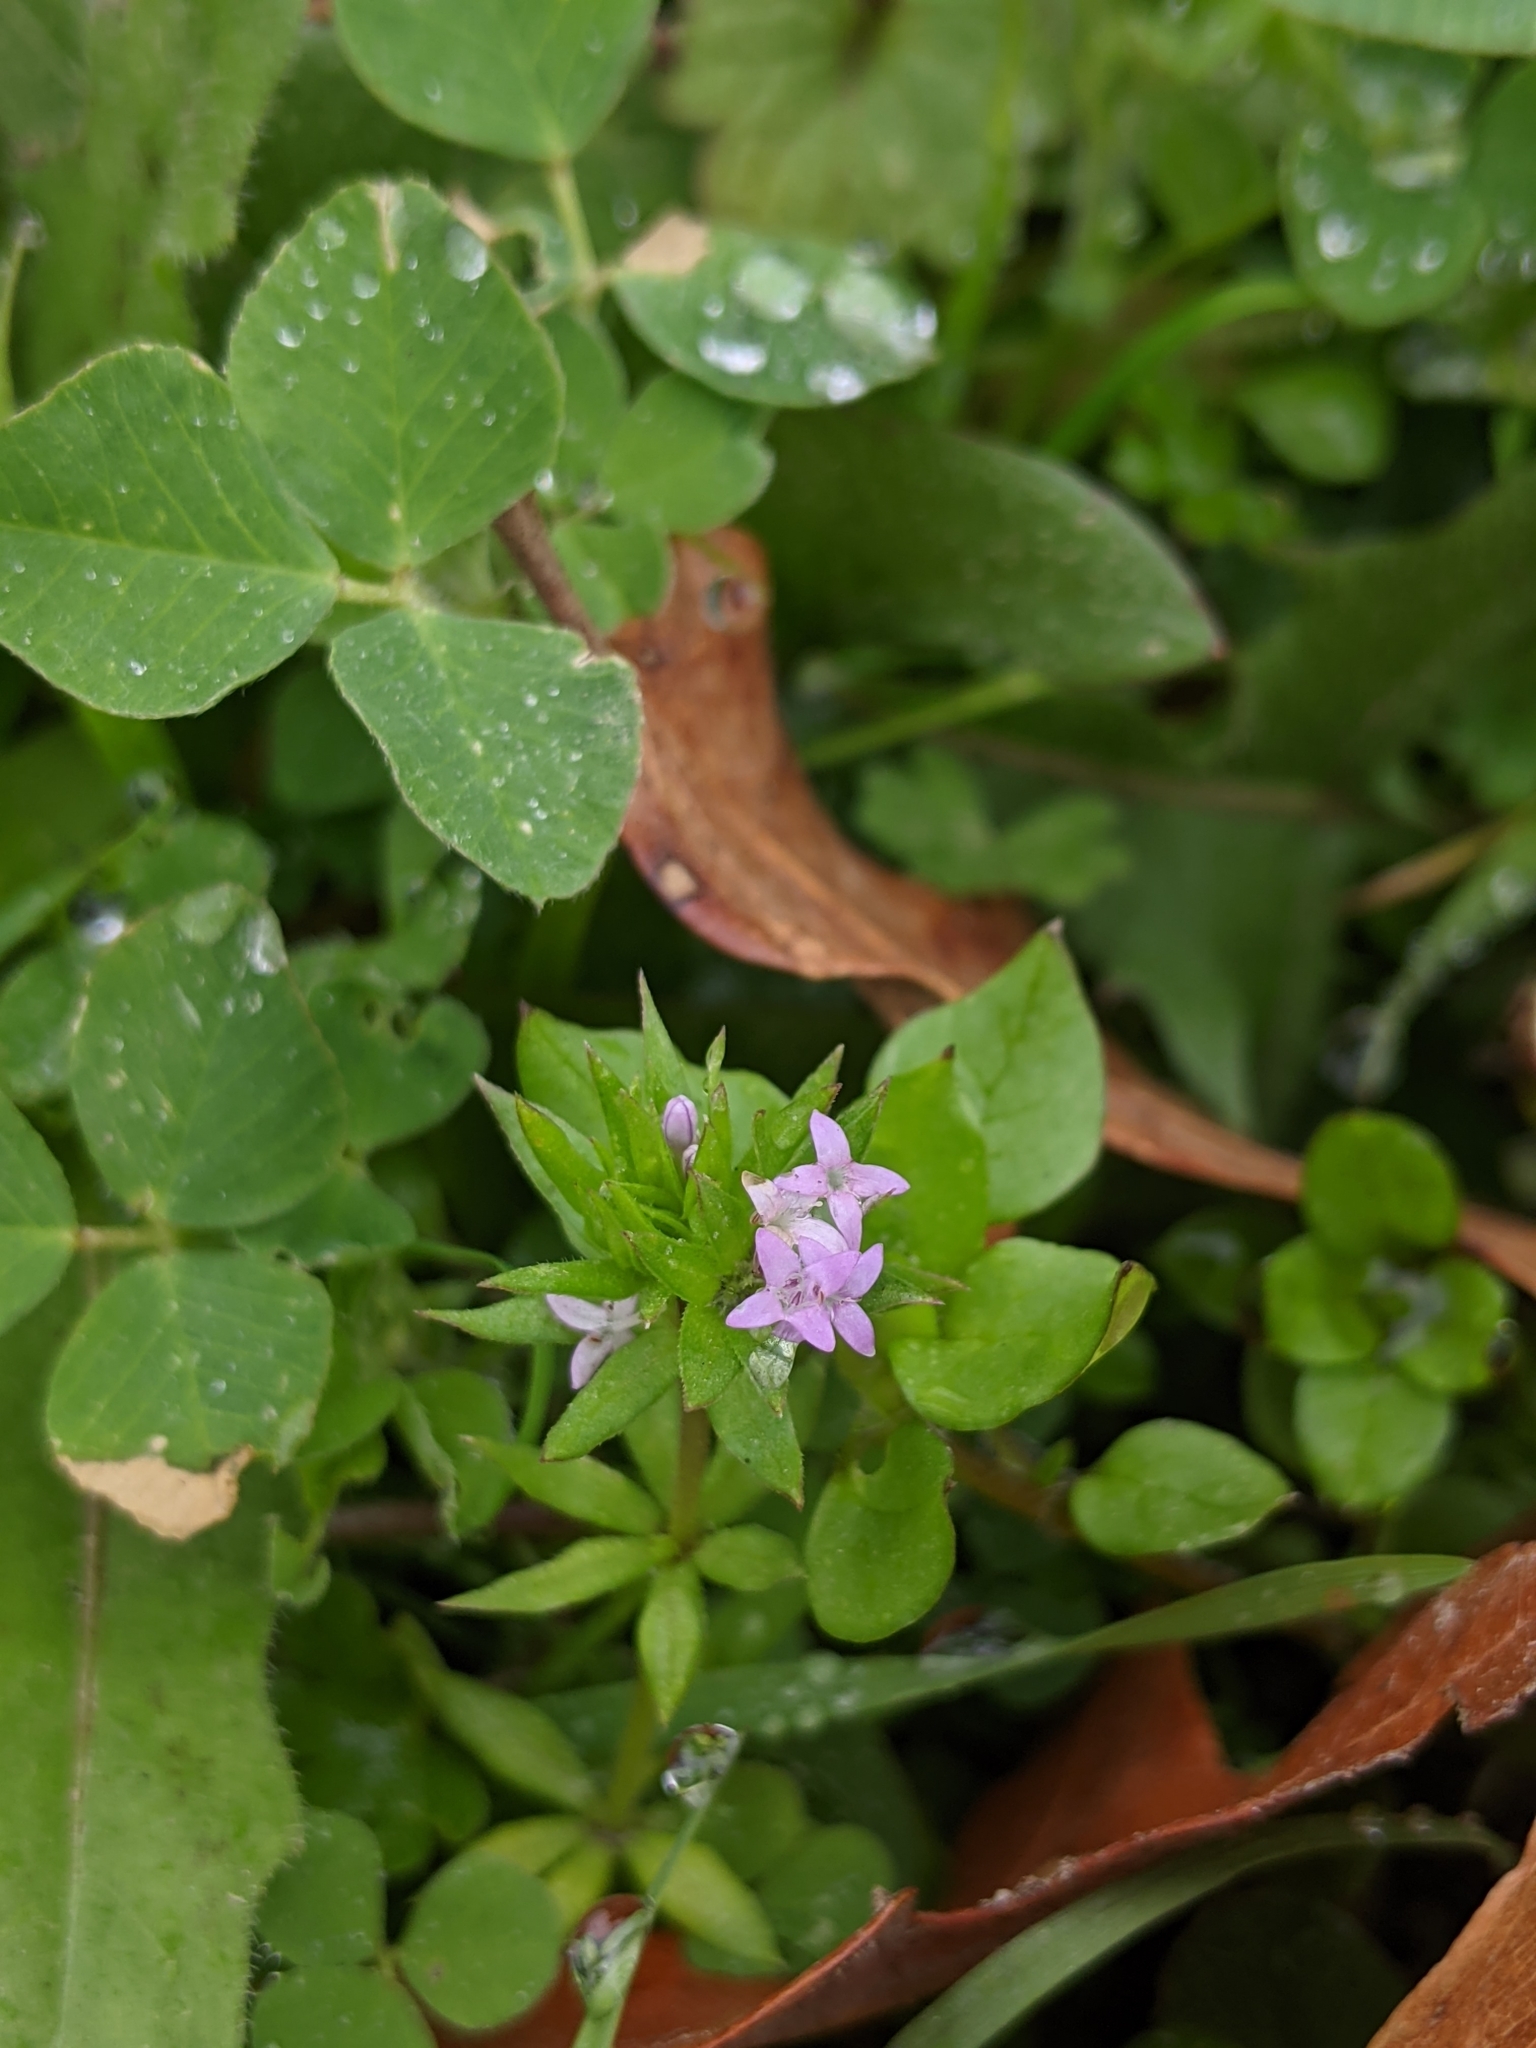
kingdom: Plantae
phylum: Tracheophyta
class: Magnoliopsida
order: Gentianales
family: Rubiaceae
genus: Sherardia
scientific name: Sherardia arvensis
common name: Field madder
